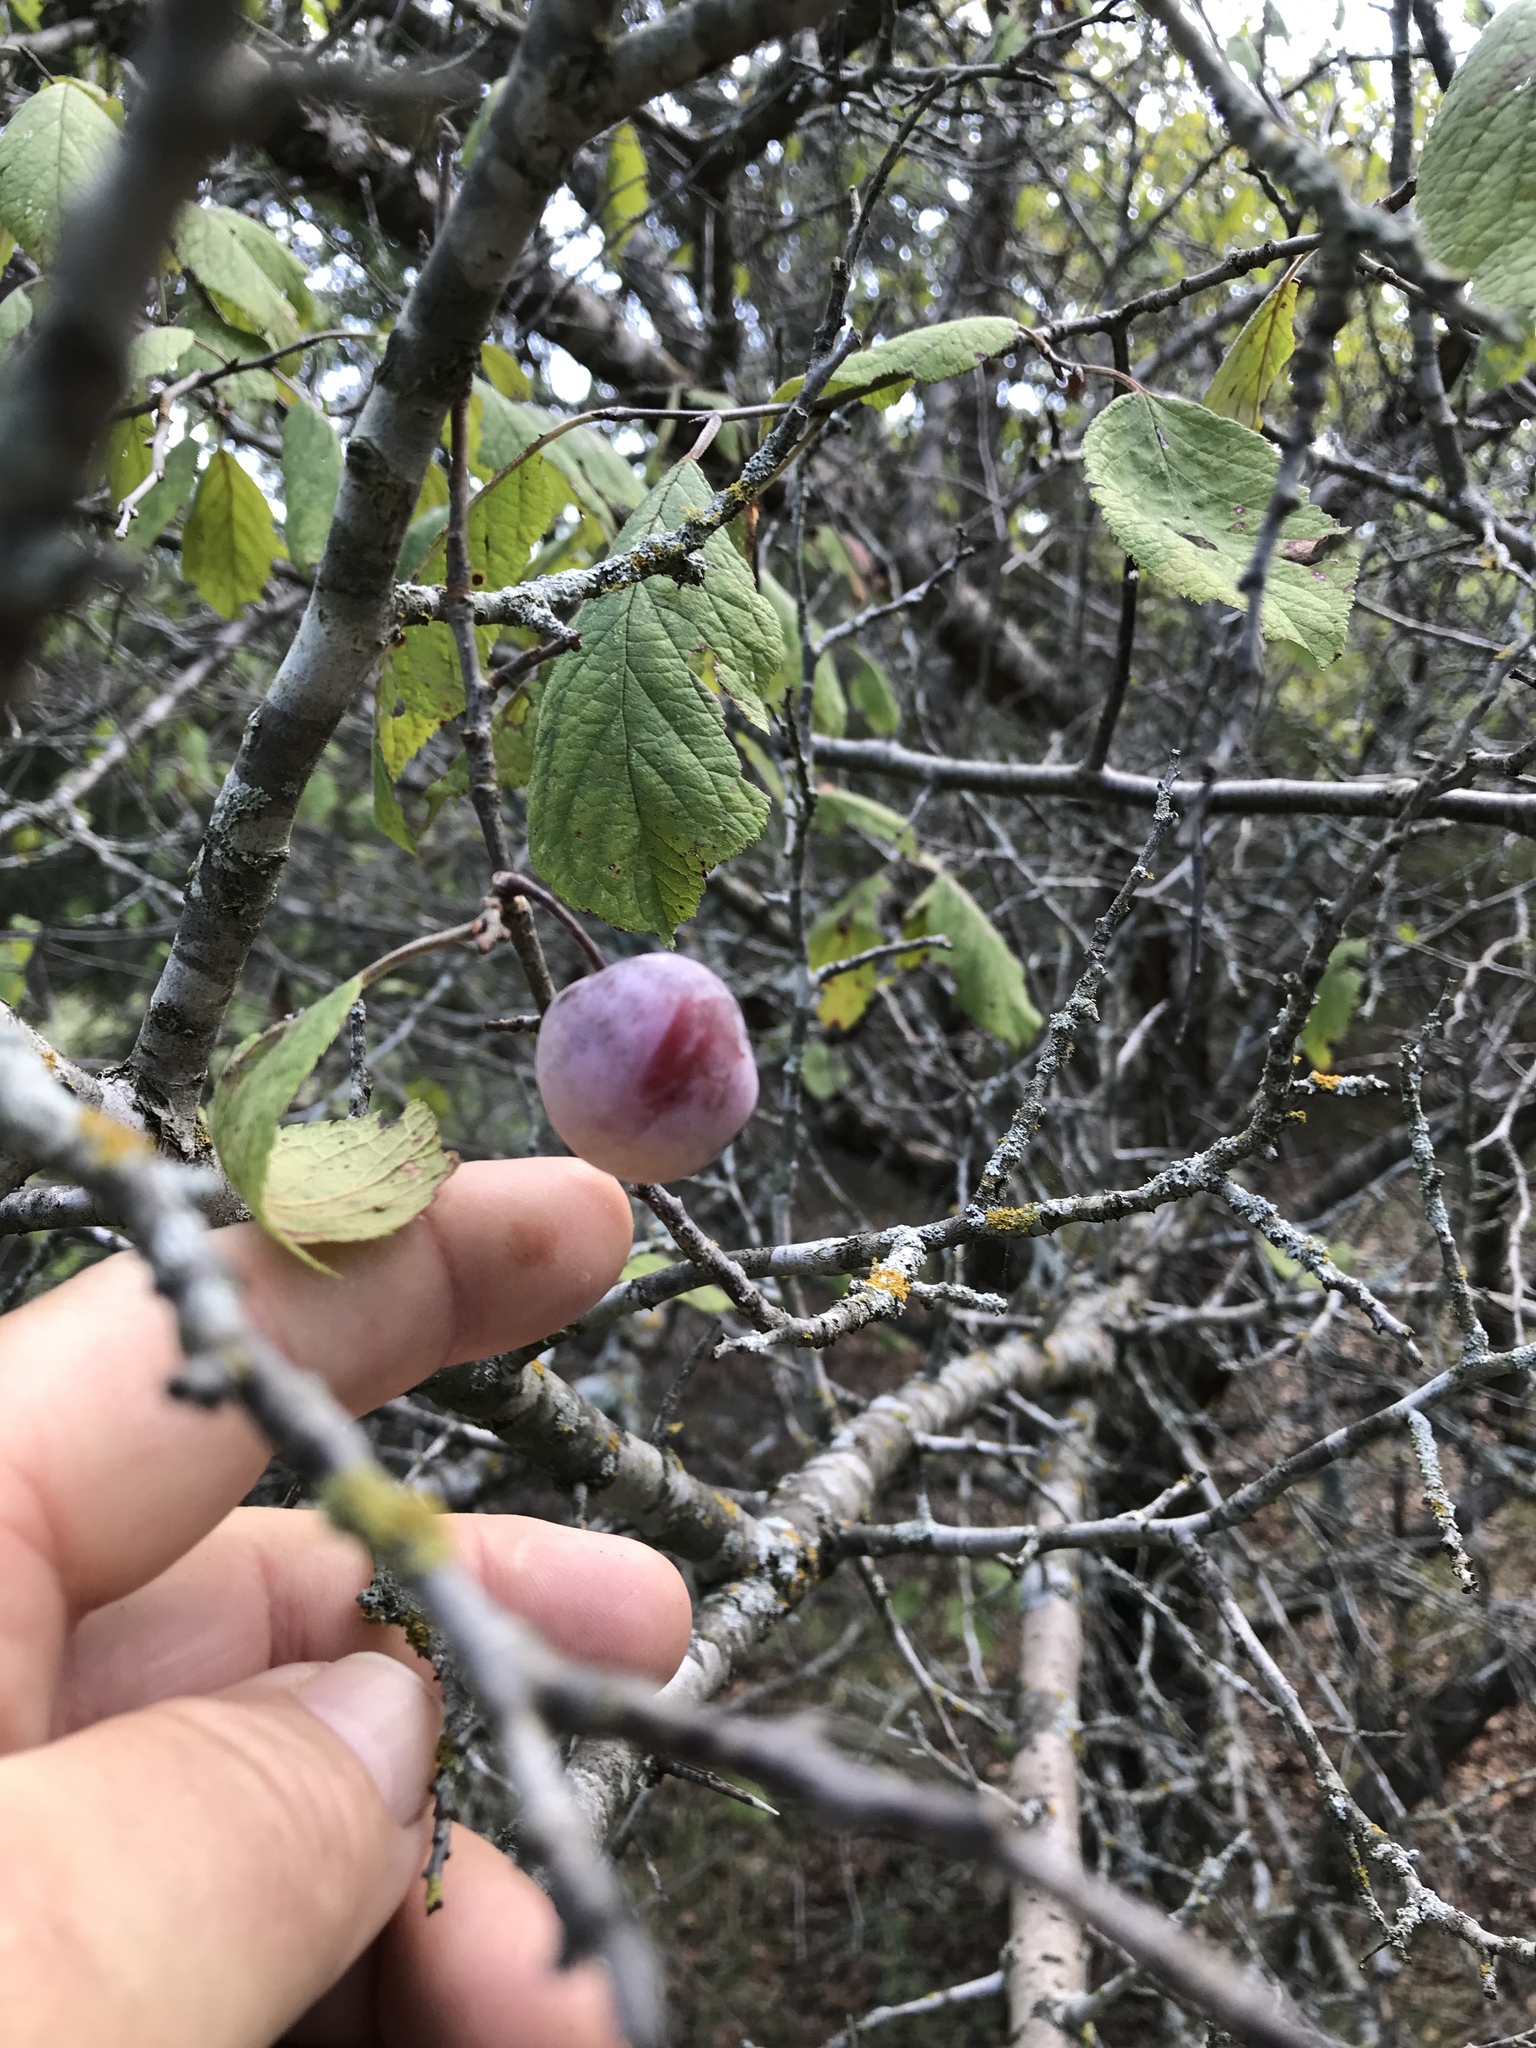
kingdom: Plantae
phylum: Tracheophyta
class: Magnoliopsida
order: Rosales
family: Rosaceae
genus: Prunus
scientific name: Prunus mexicana
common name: Mexican plum
